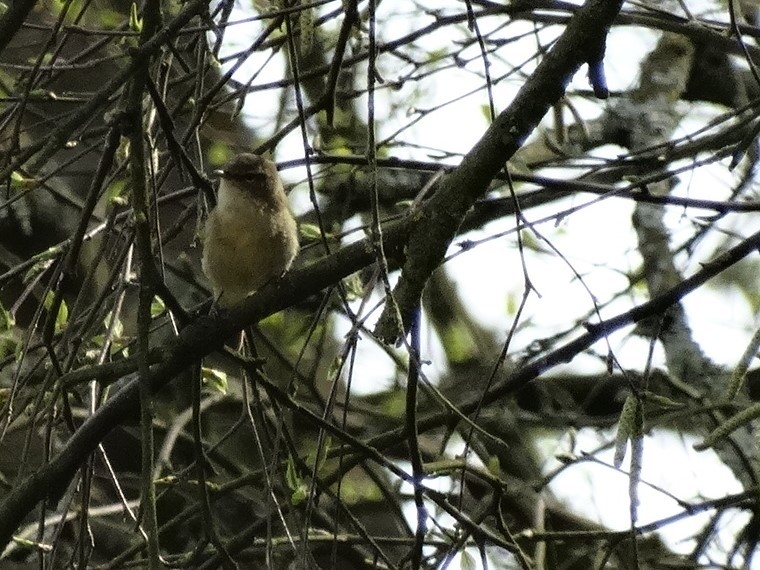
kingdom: Animalia
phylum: Chordata
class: Aves
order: Passeriformes
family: Phylloscopidae
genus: Phylloscopus
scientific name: Phylloscopus collybita
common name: Common chiffchaff
